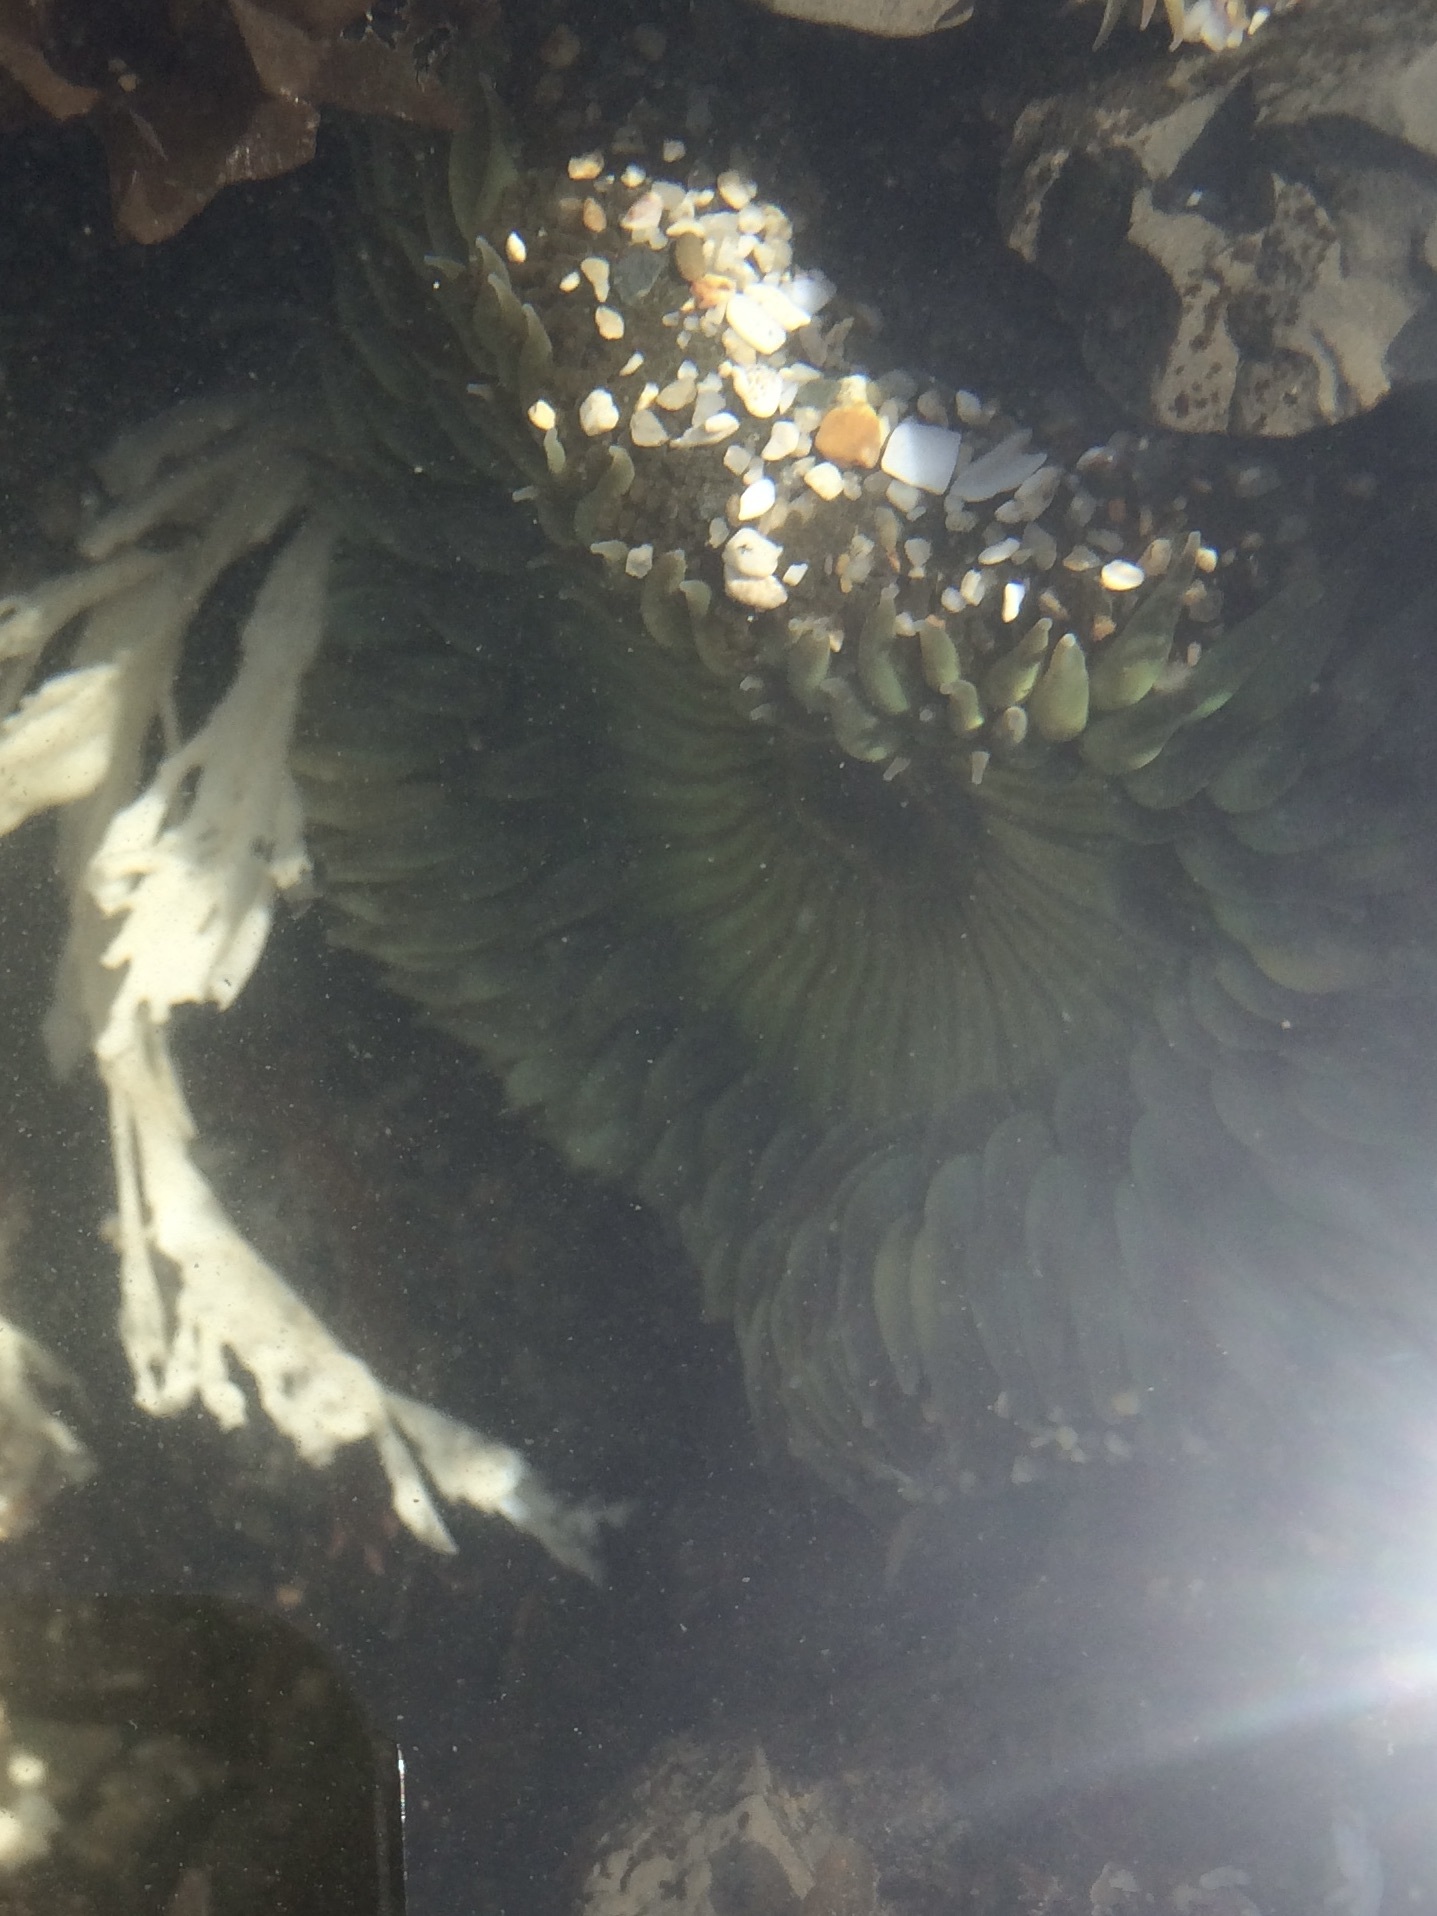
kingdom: Animalia
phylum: Cnidaria
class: Anthozoa
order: Actiniaria
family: Actiniidae
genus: Anthopleura
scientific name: Anthopleura sola
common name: Sun anemone
